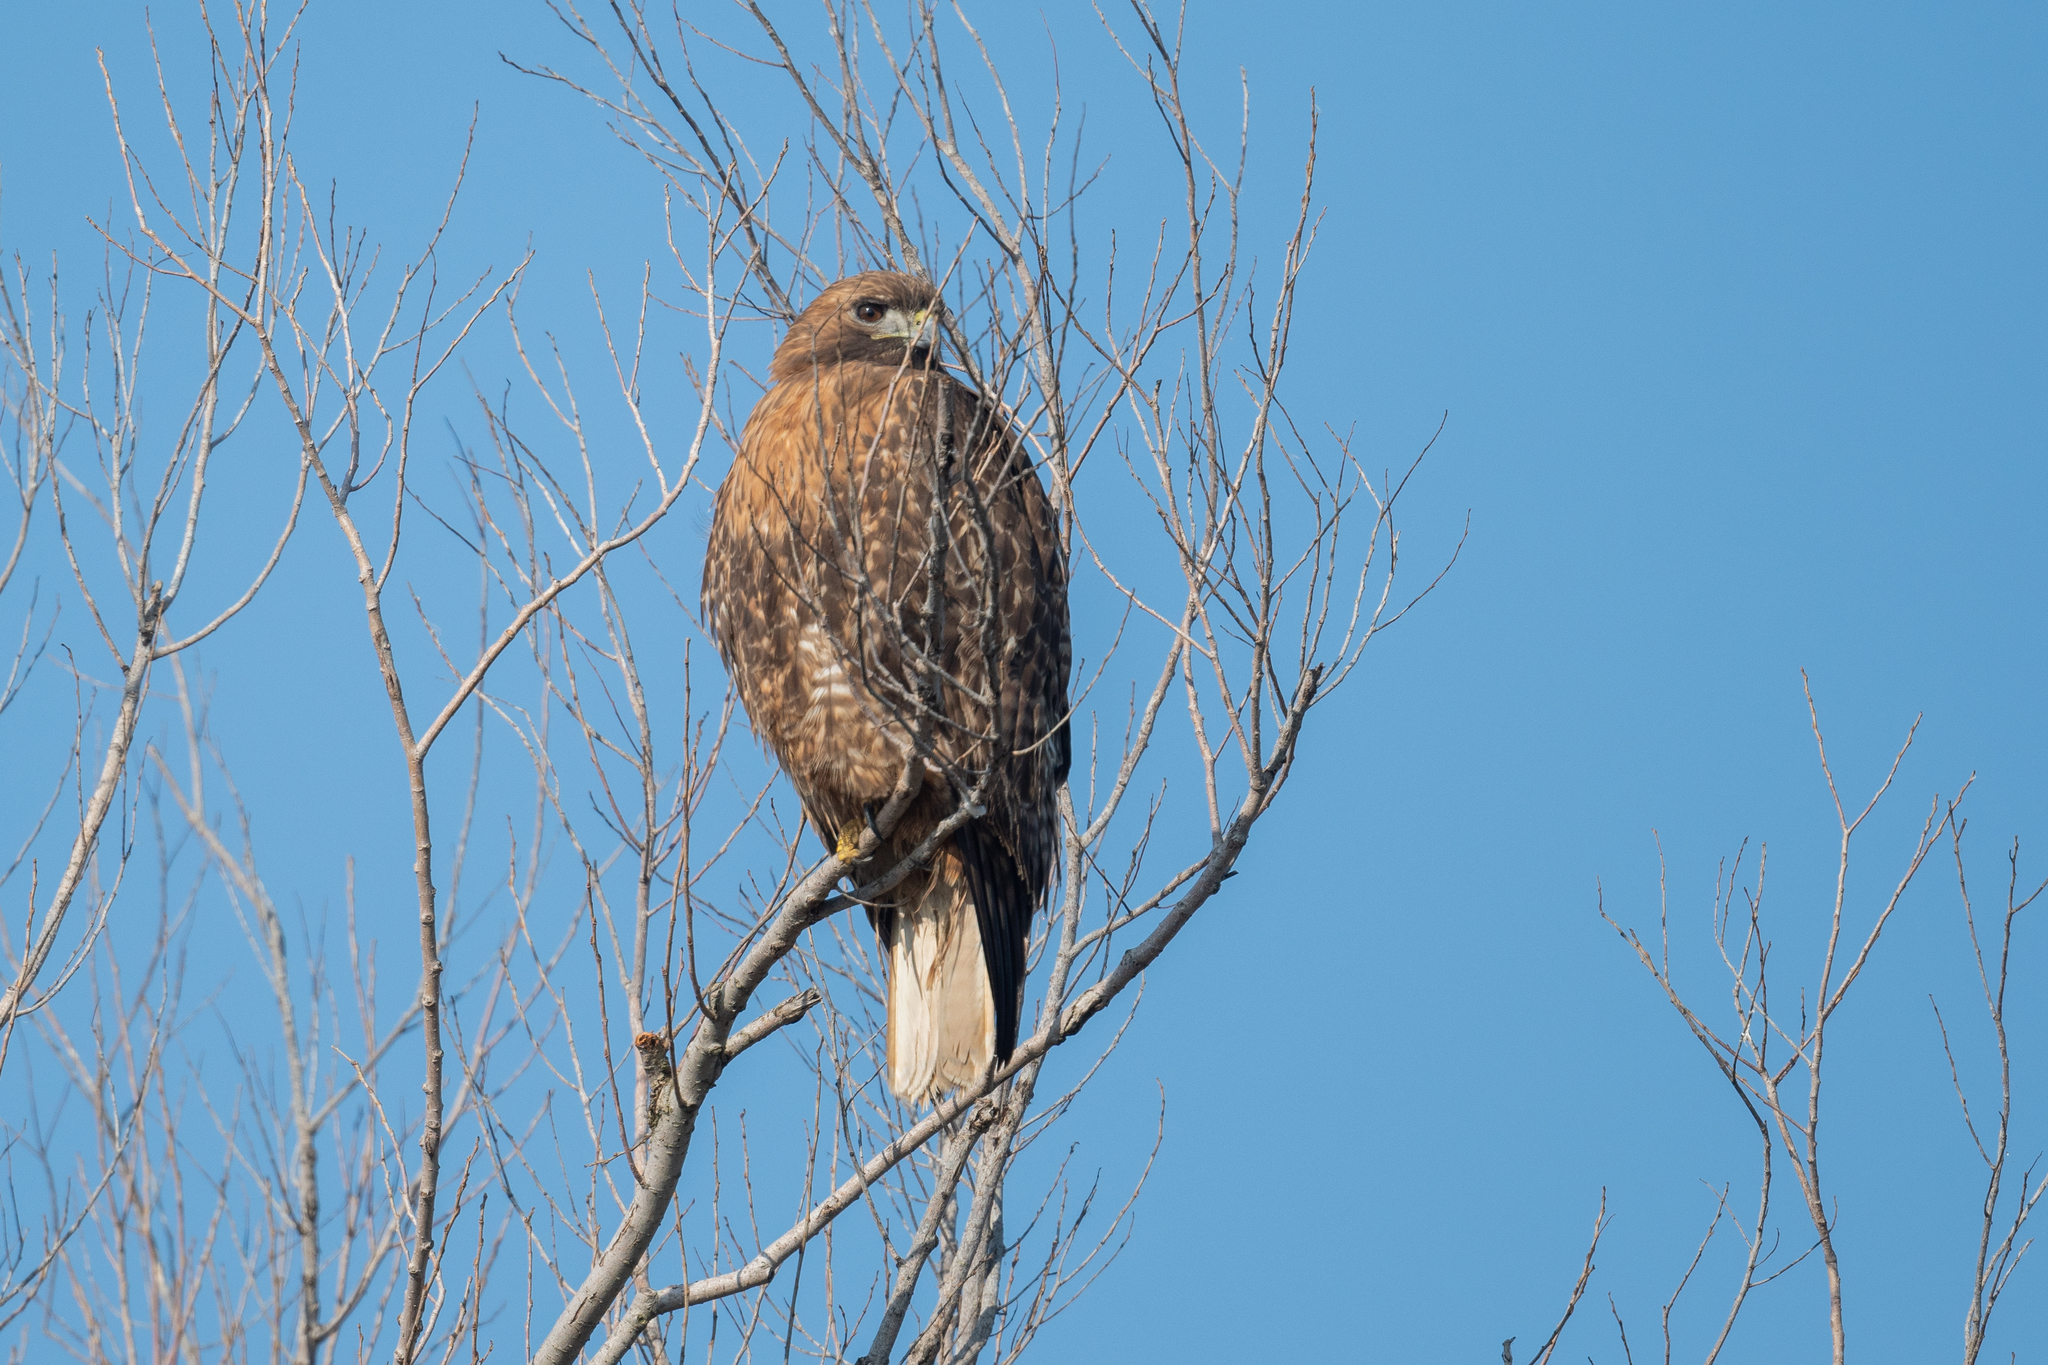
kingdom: Animalia
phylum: Chordata
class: Aves
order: Accipitriformes
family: Accipitridae
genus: Buteo
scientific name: Buteo jamaicensis
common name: Red-tailed hawk
